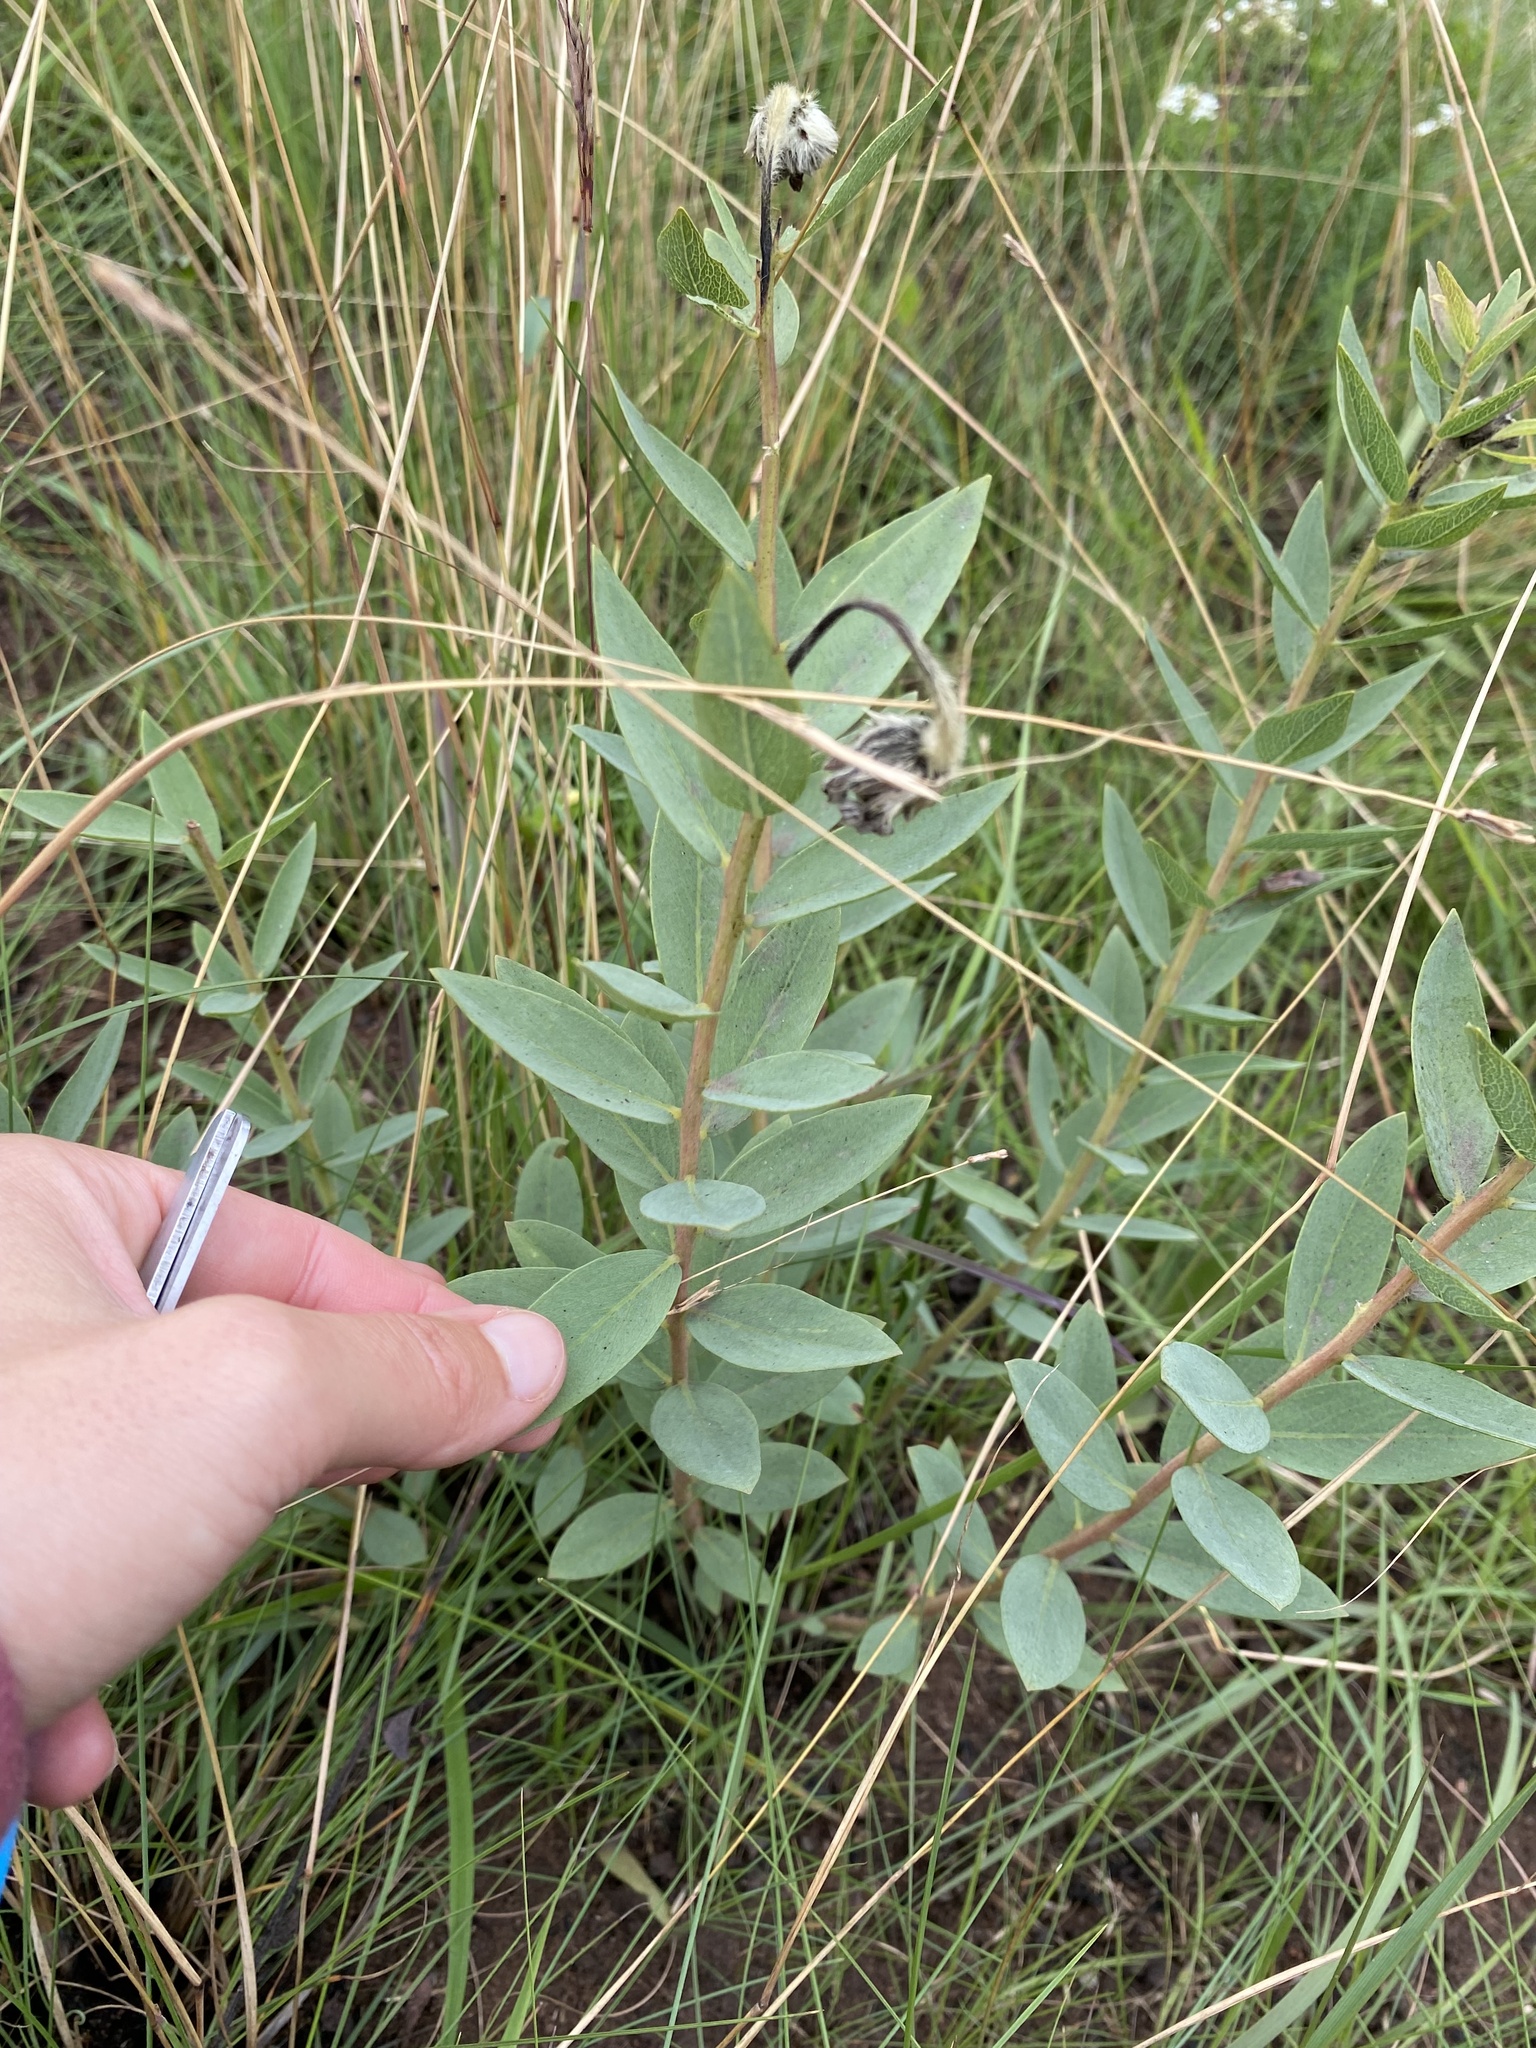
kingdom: Plantae
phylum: Tracheophyta
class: Magnoliopsida
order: Malvales
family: Thymelaeaceae
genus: Gnidia
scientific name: Gnidia kraussiana
